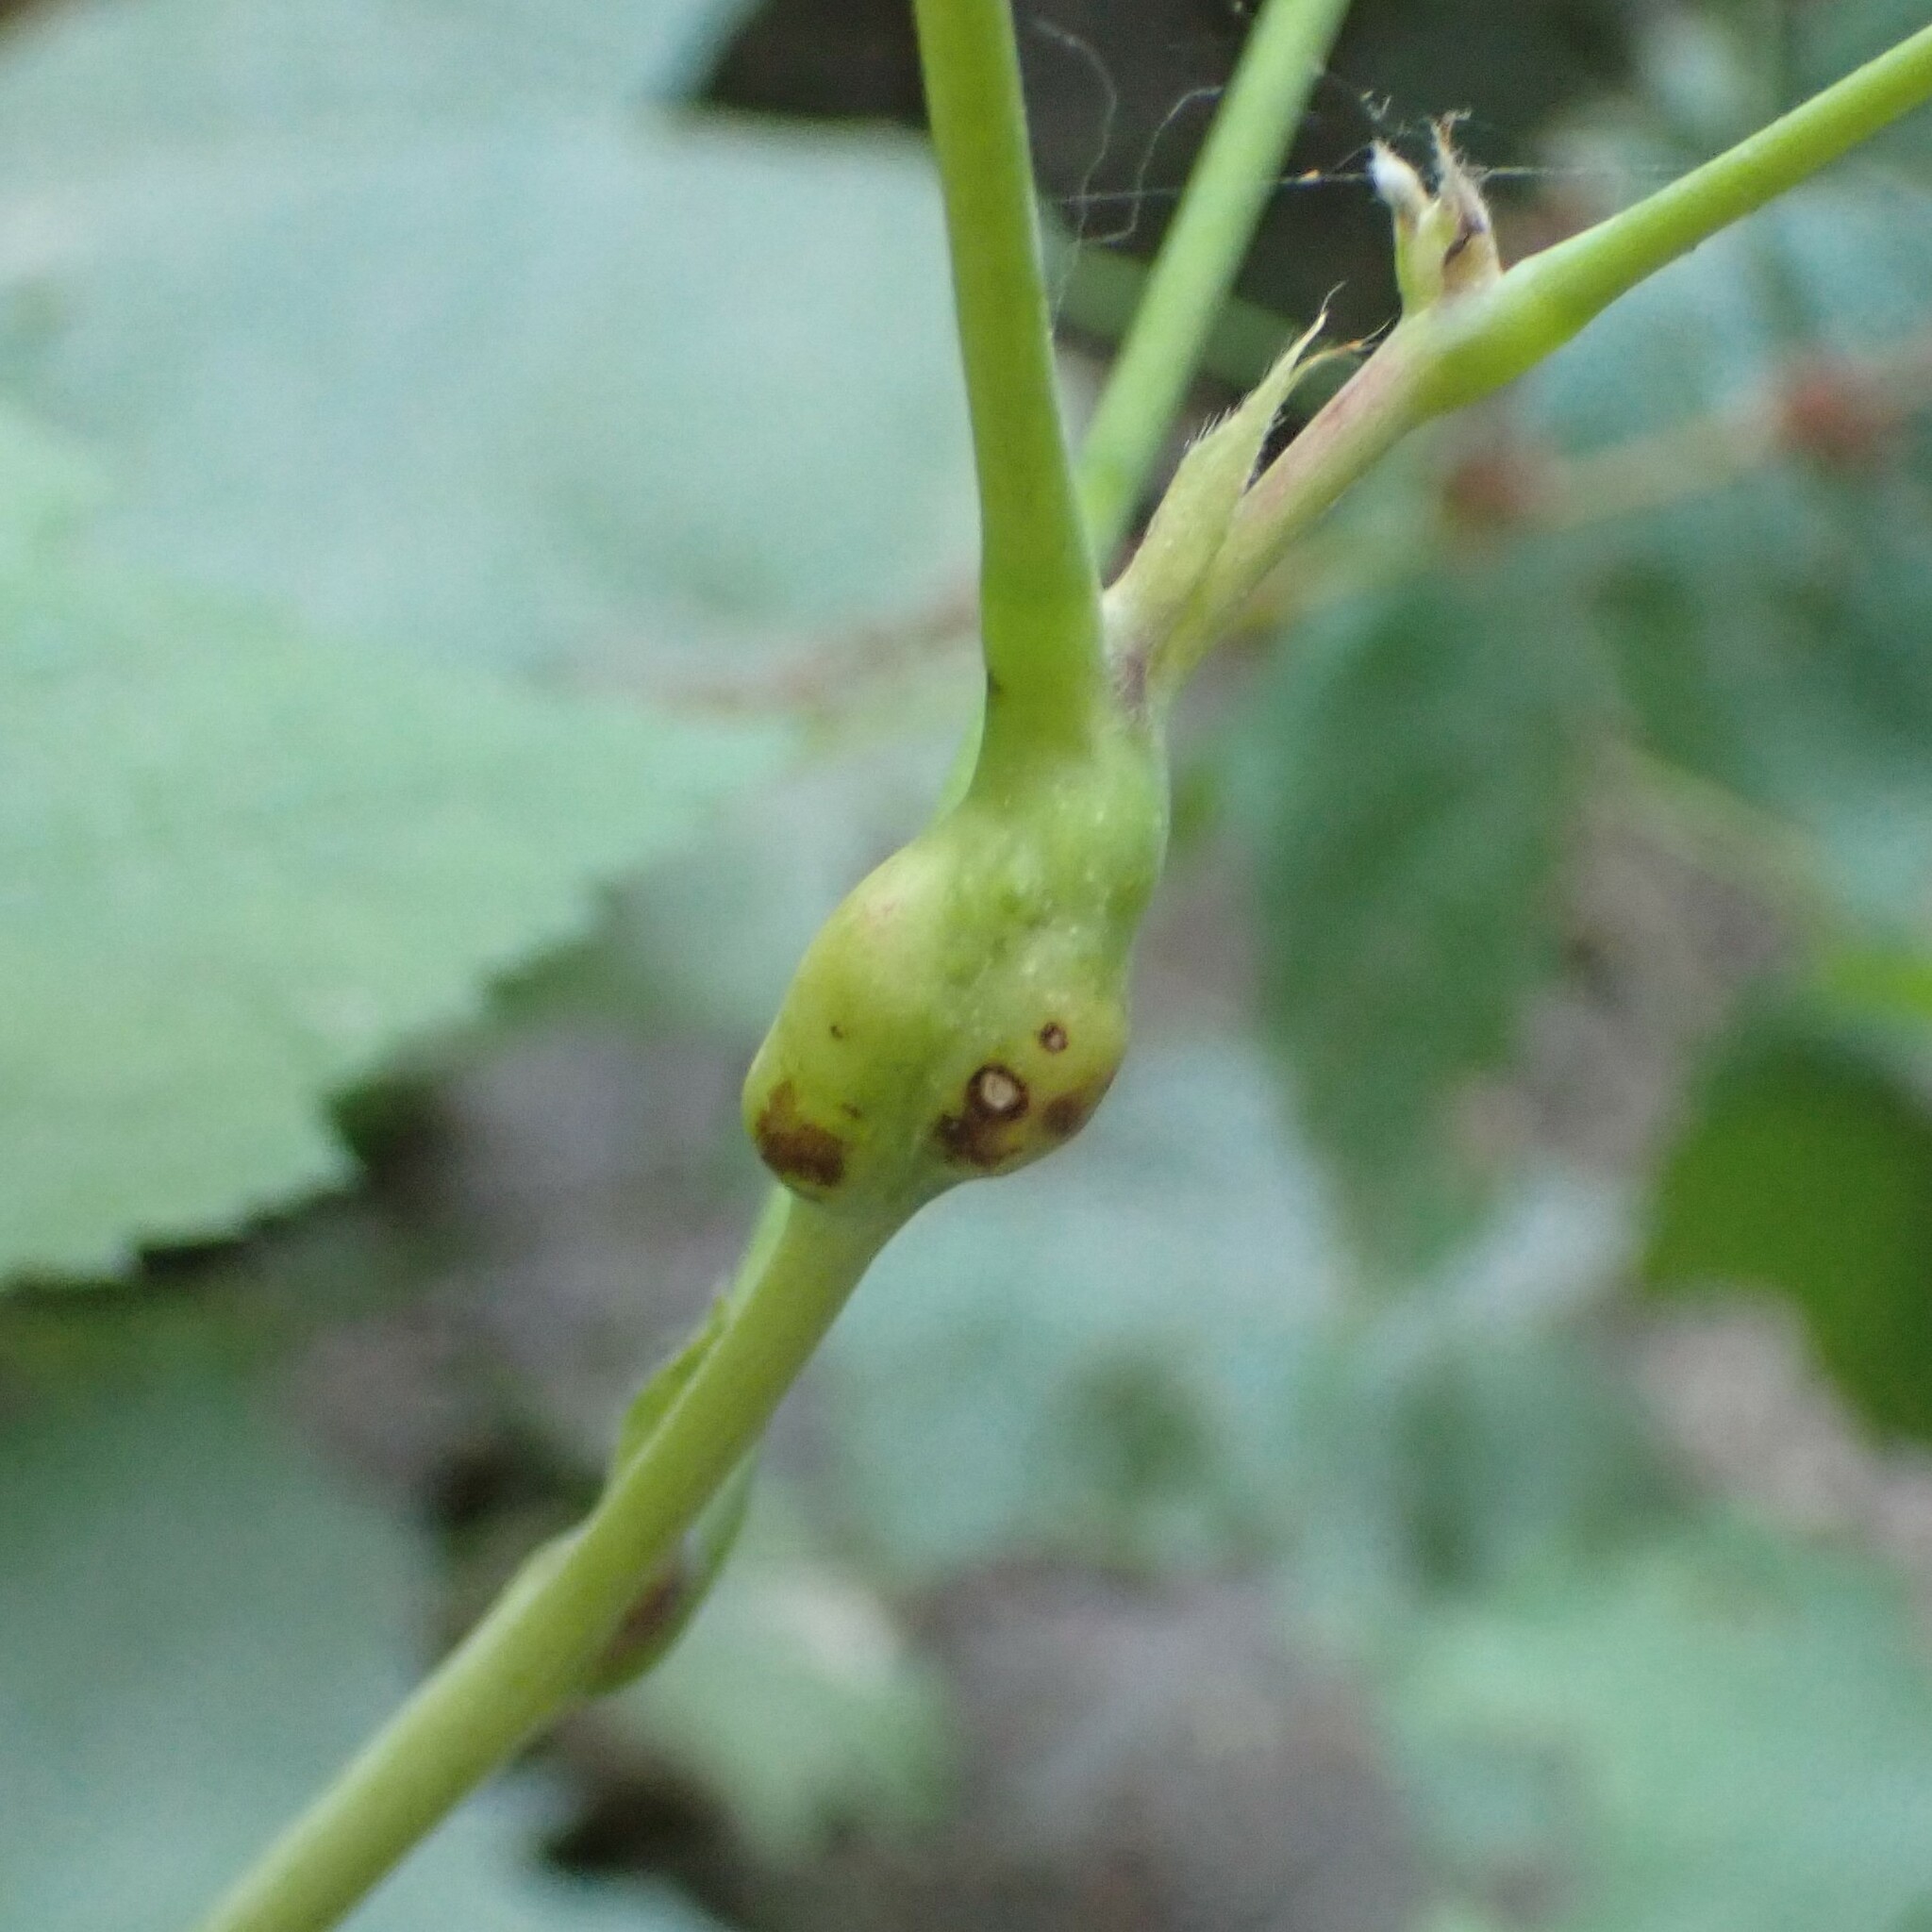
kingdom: Animalia
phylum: Arthropoda
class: Insecta
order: Hymenoptera
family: Cynipidae
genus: Diastrophus
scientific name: Diastrophus
